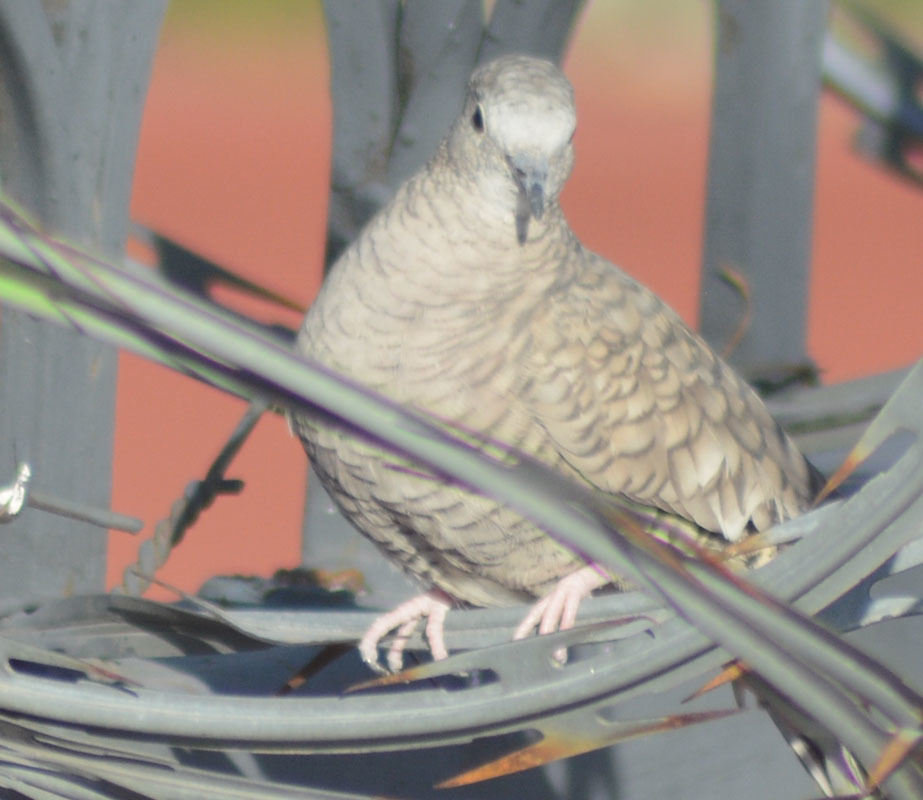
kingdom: Animalia
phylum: Chordata
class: Aves
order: Columbiformes
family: Columbidae
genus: Columbina
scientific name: Columbina inca
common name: Inca dove
